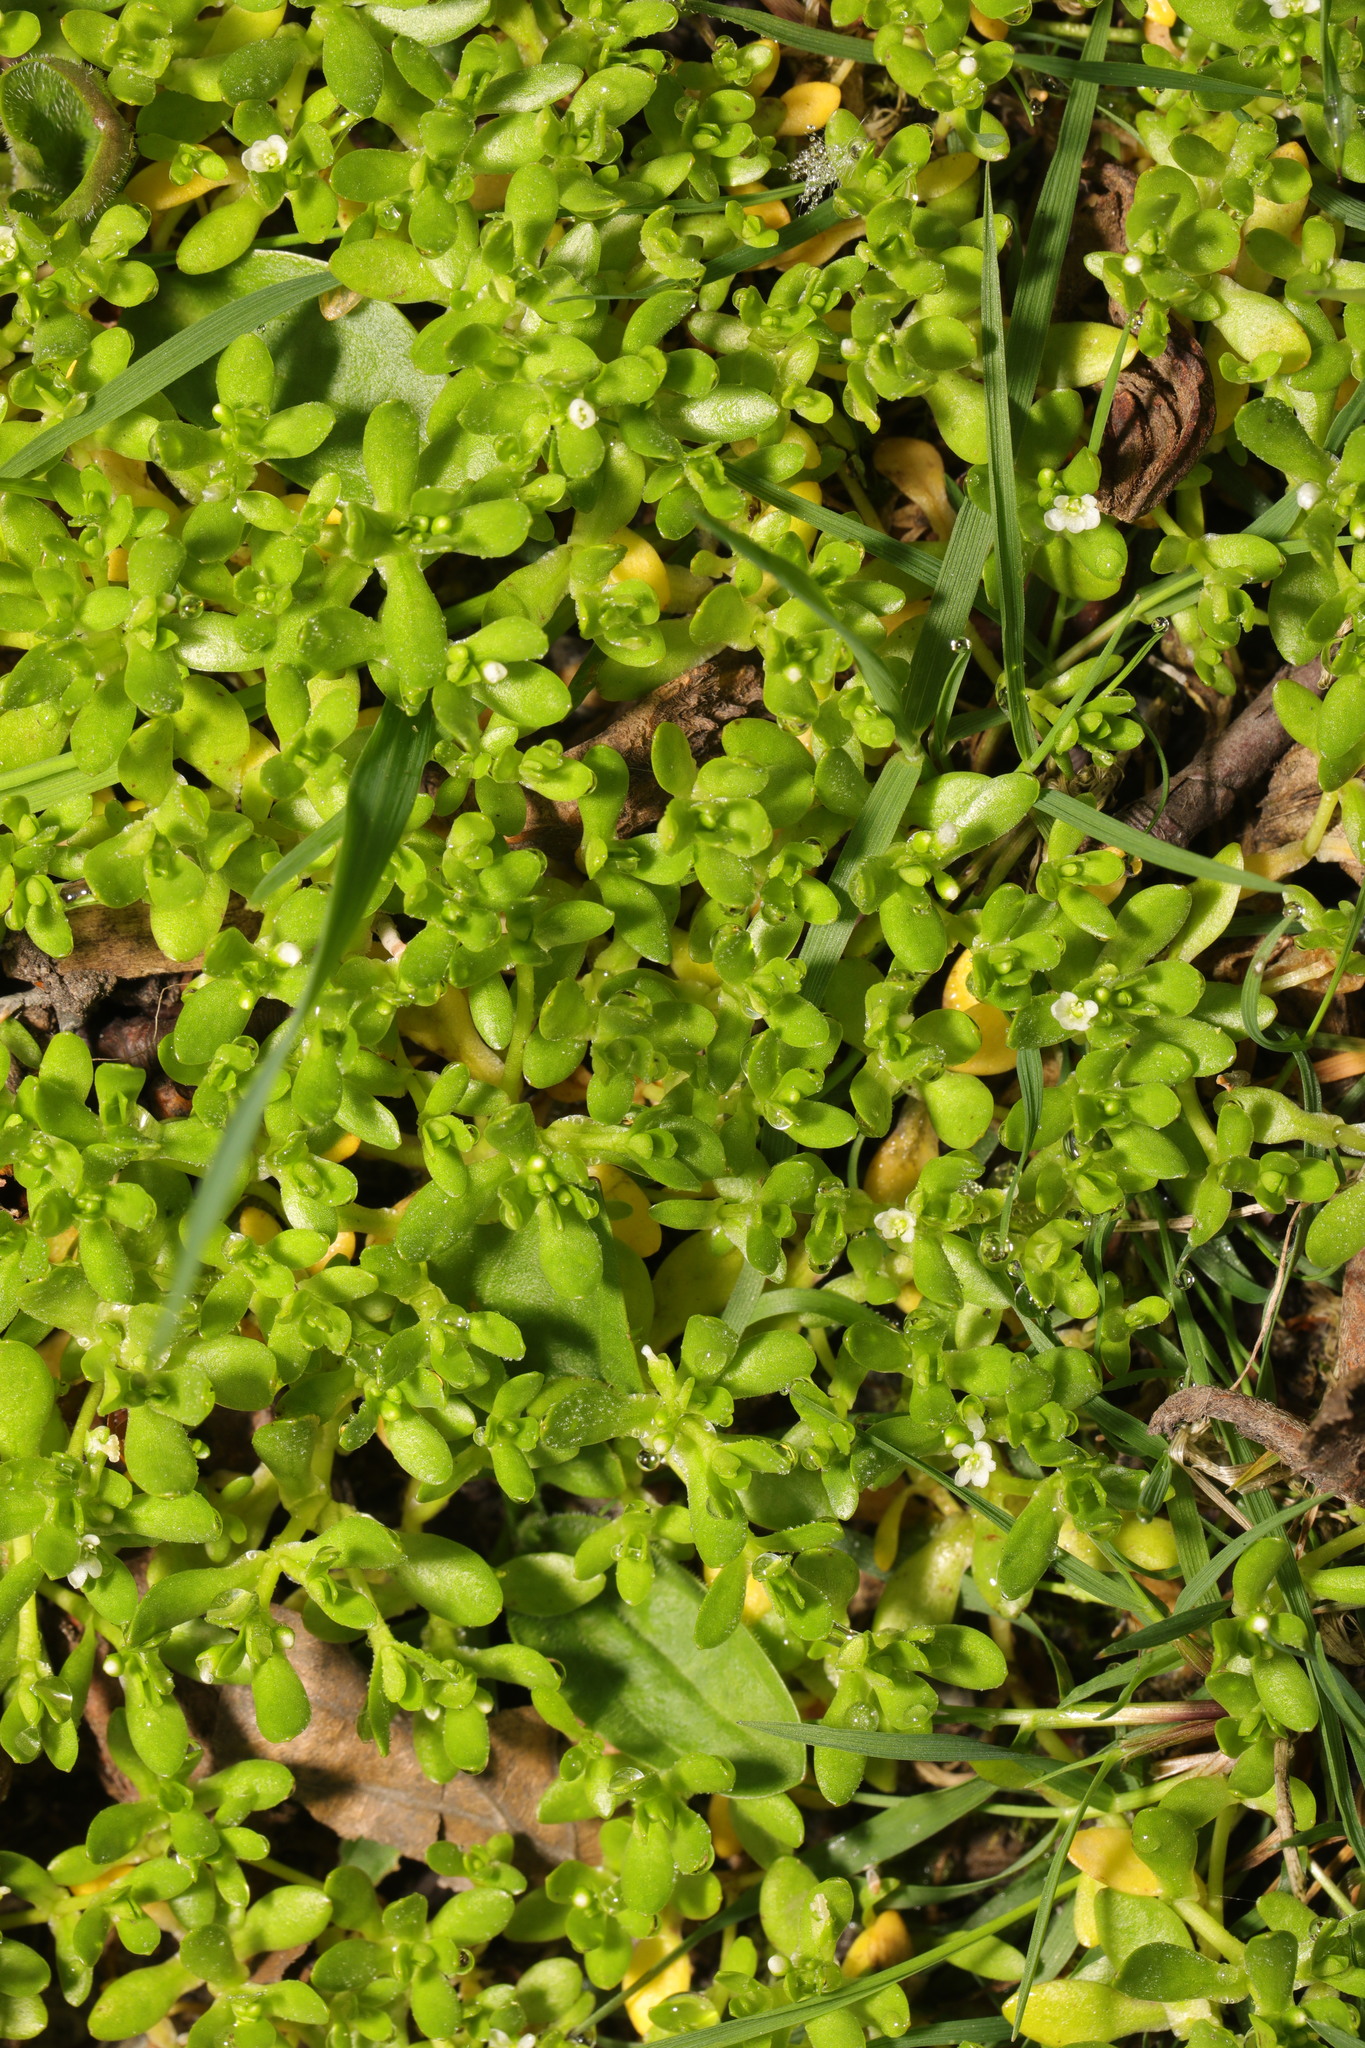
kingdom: Plantae
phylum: Tracheophyta
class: Magnoliopsida
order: Caryophyllales
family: Montiaceae
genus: Montia
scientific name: Montia fontana
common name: Blinks
